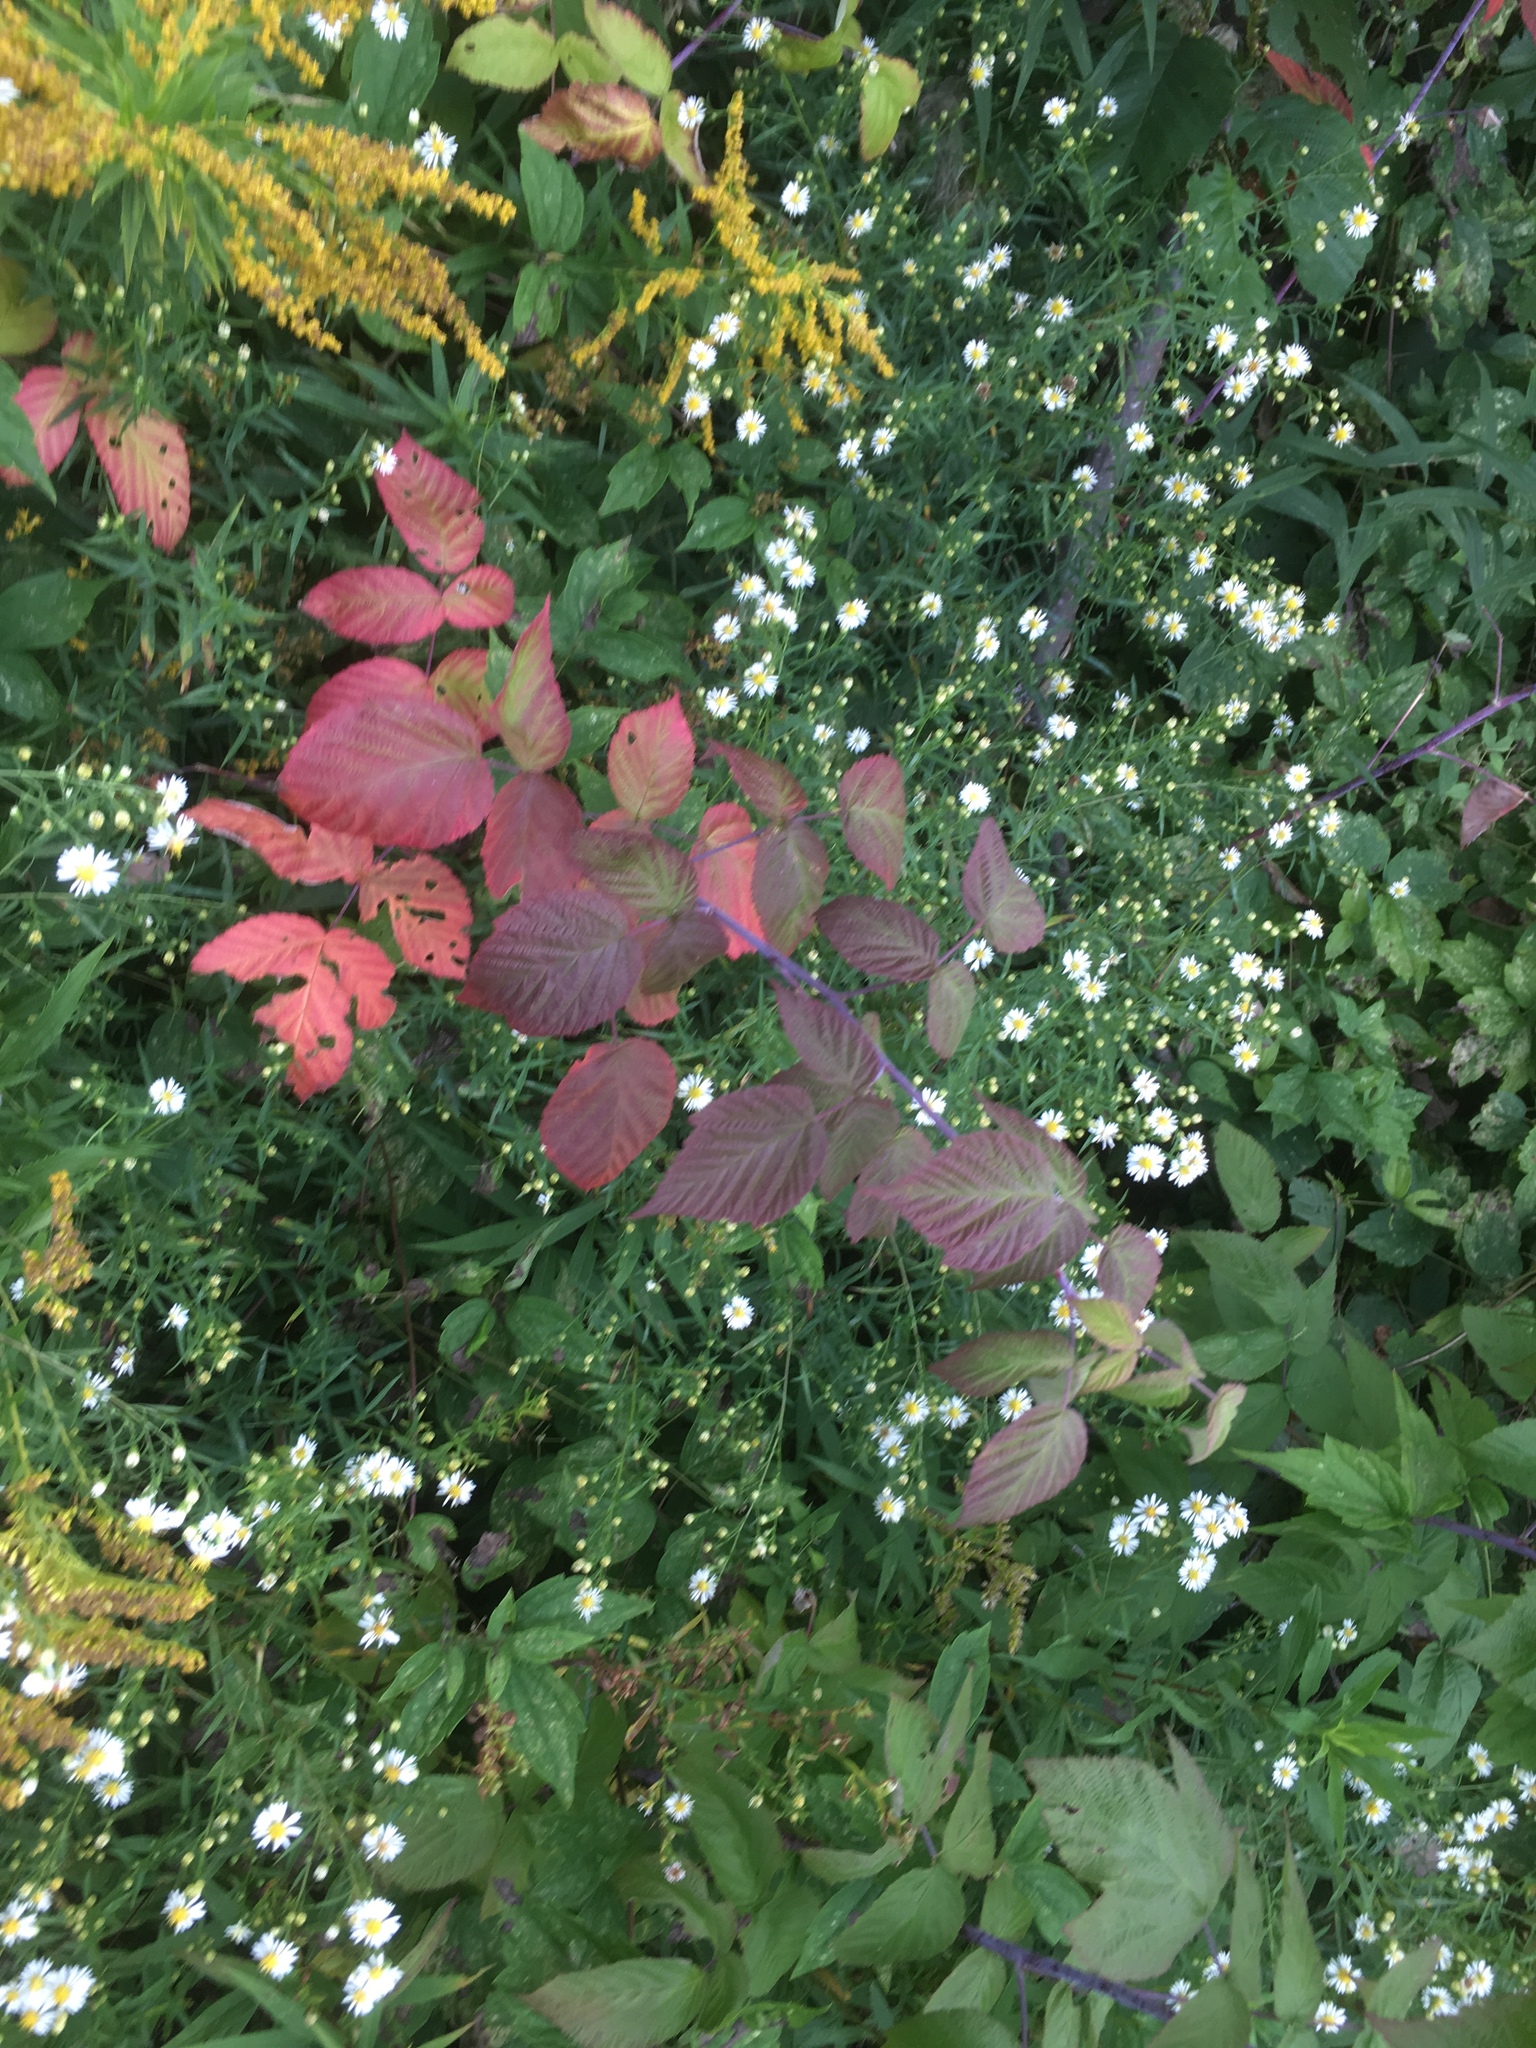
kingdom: Plantae
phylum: Tracheophyta
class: Magnoliopsida
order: Rosales
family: Rosaceae
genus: Rubus
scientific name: Rubus occidentalis
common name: Black raspberry
